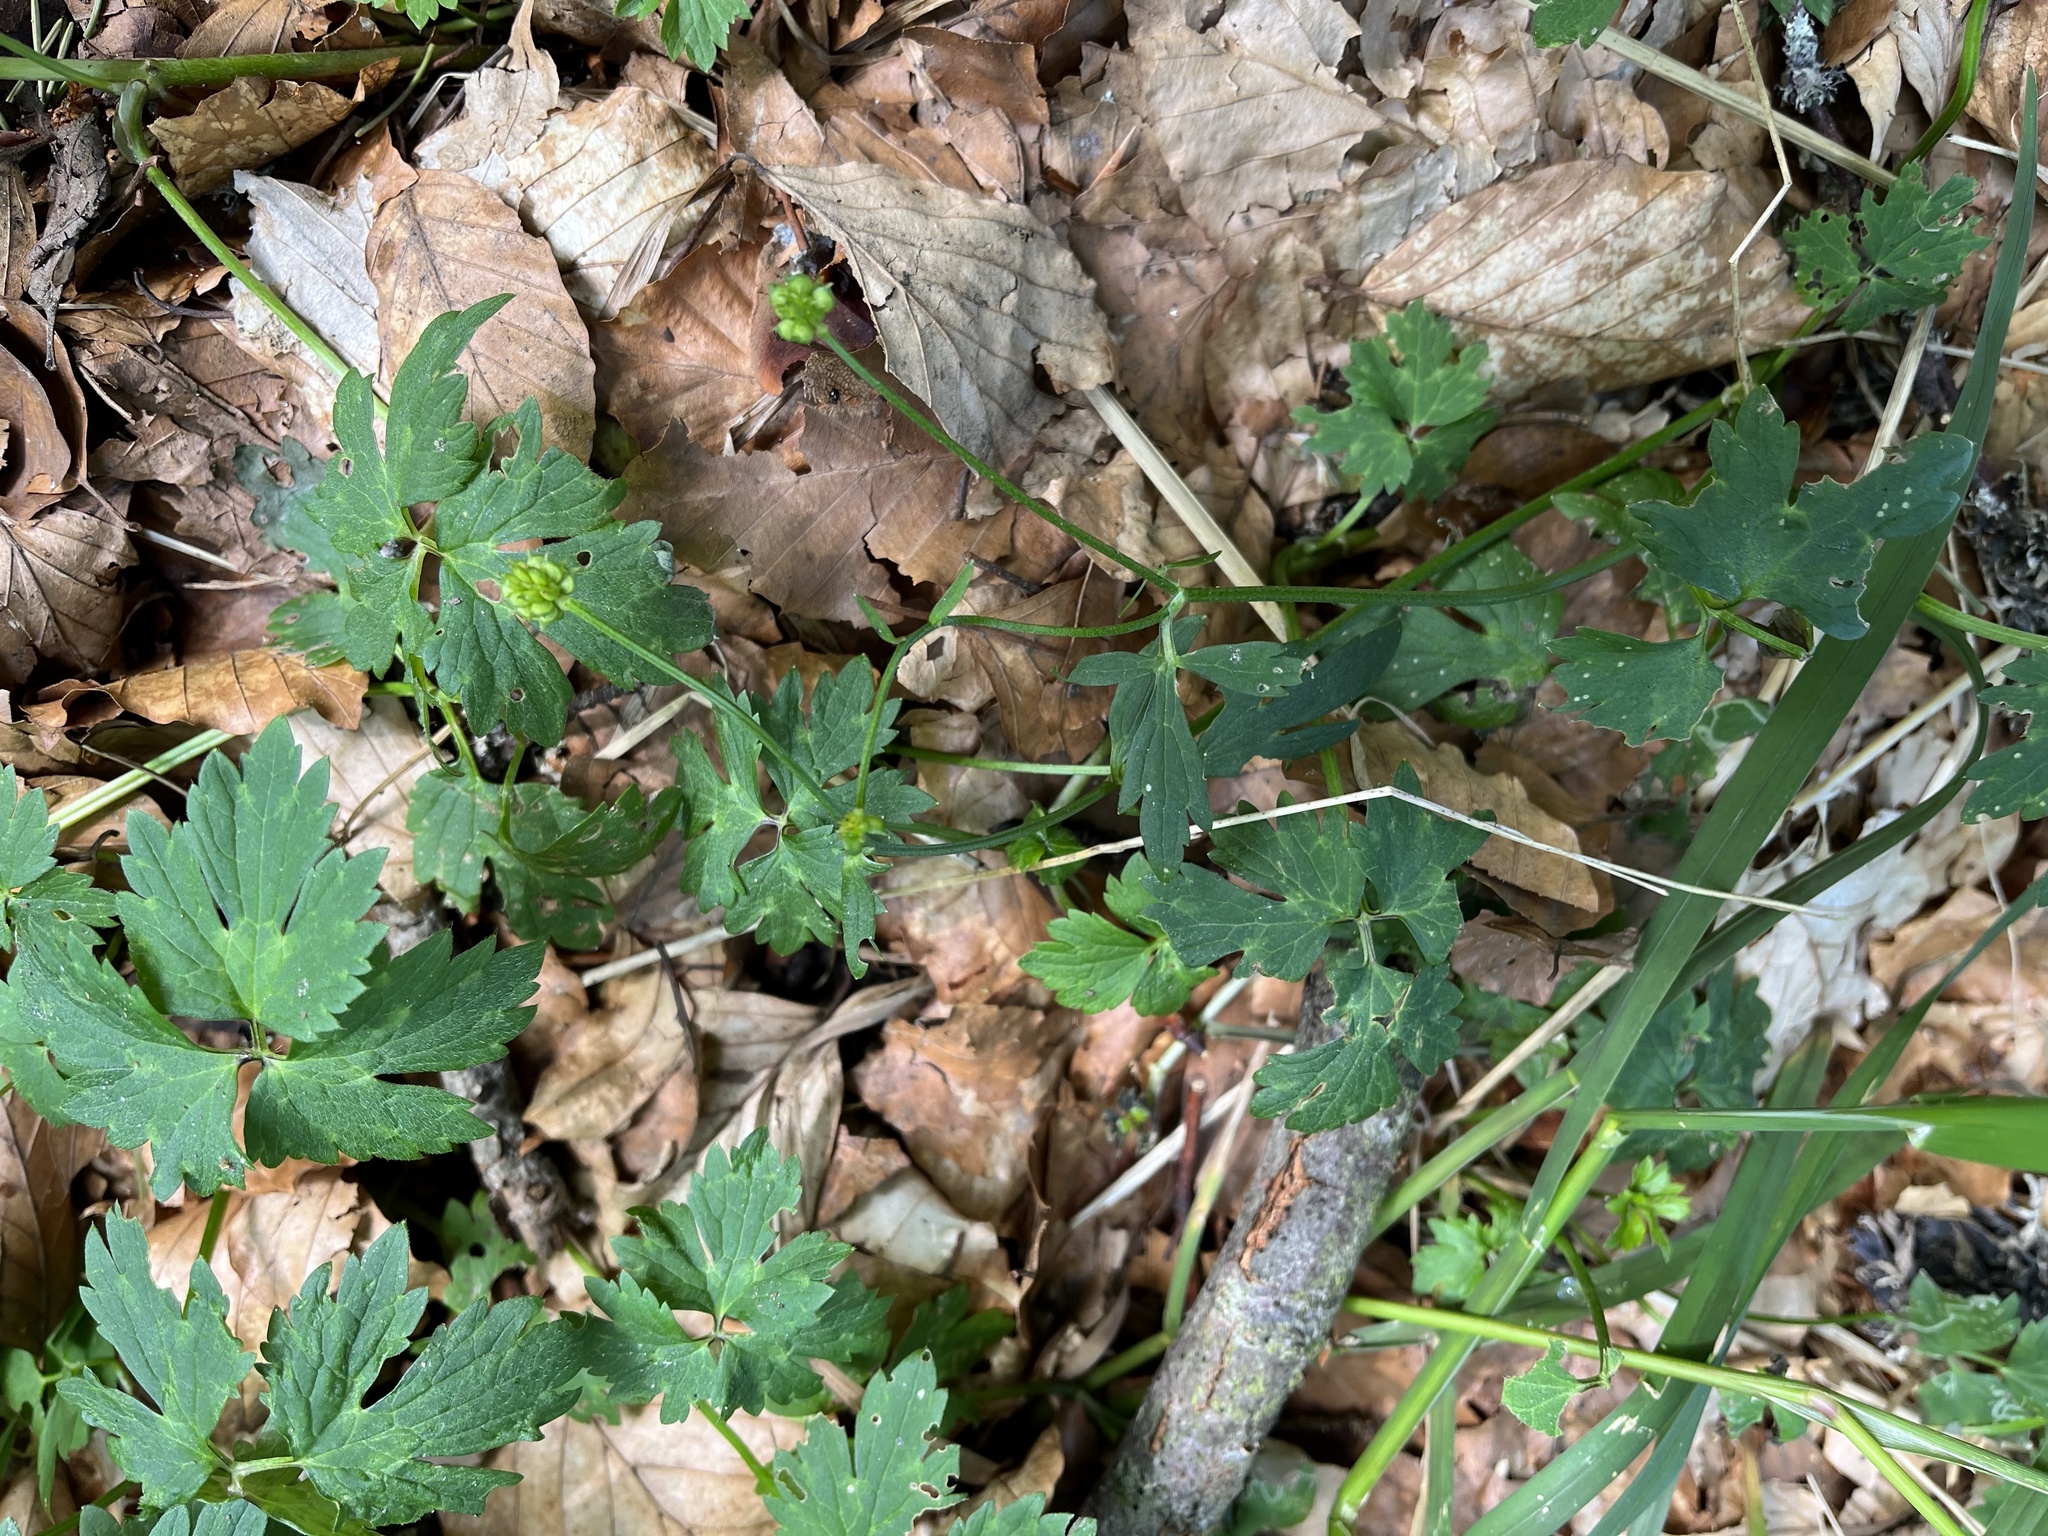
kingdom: Plantae
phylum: Tracheophyta
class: Magnoliopsida
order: Ranunculales
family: Ranunculaceae
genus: Ranunculus
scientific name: Ranunculus repens
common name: Creeping buttercup
